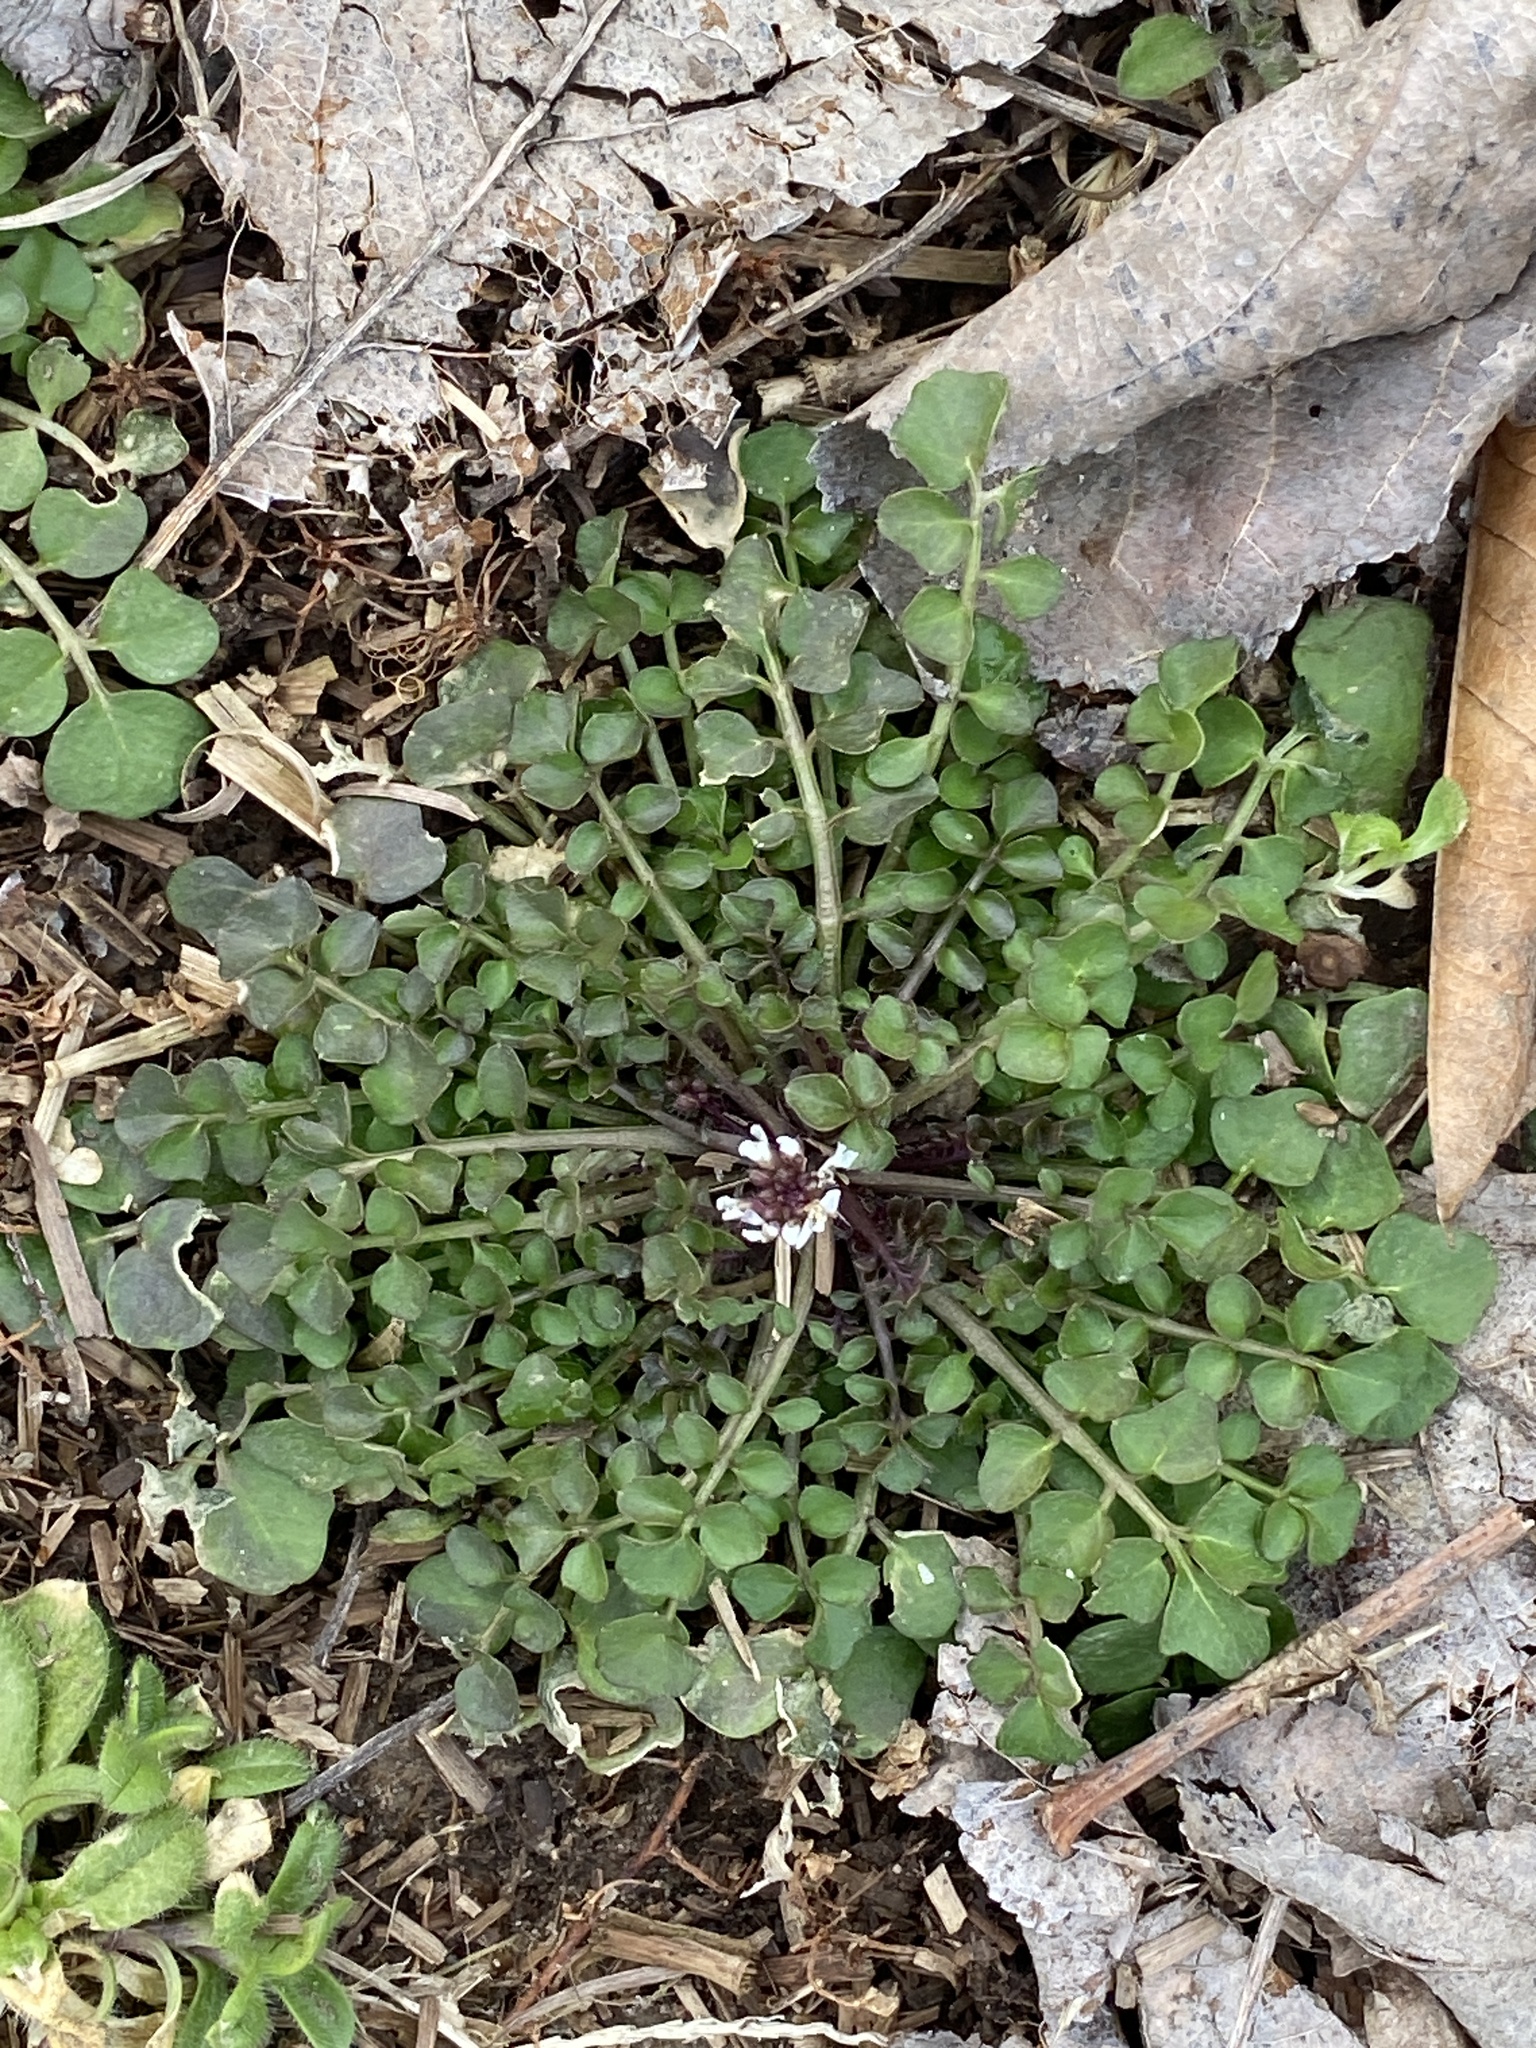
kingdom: Plantae
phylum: Tracheophyta
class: Magnoliopsida
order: Brassicales
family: Brassicaceae
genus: Cardamine
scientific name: Cardamine hirsuta
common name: Hairy bittercress
